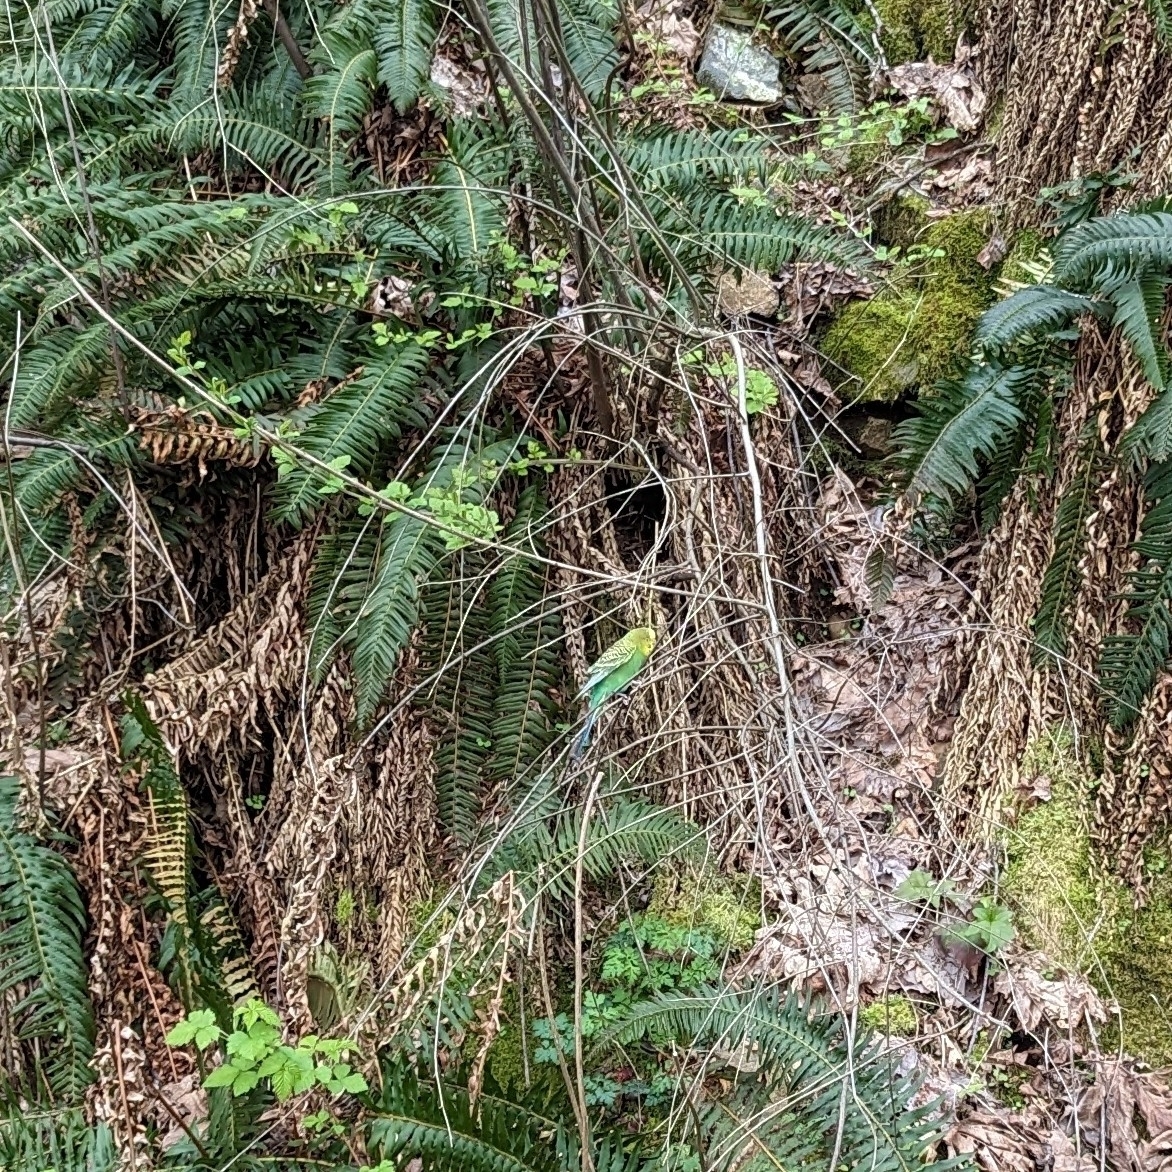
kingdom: Animalia
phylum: Chordata
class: Aves
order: Psittaciformes
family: Psittacidae
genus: Melopsittacus
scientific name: Melopsittacus undulatus
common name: Budgerigar
